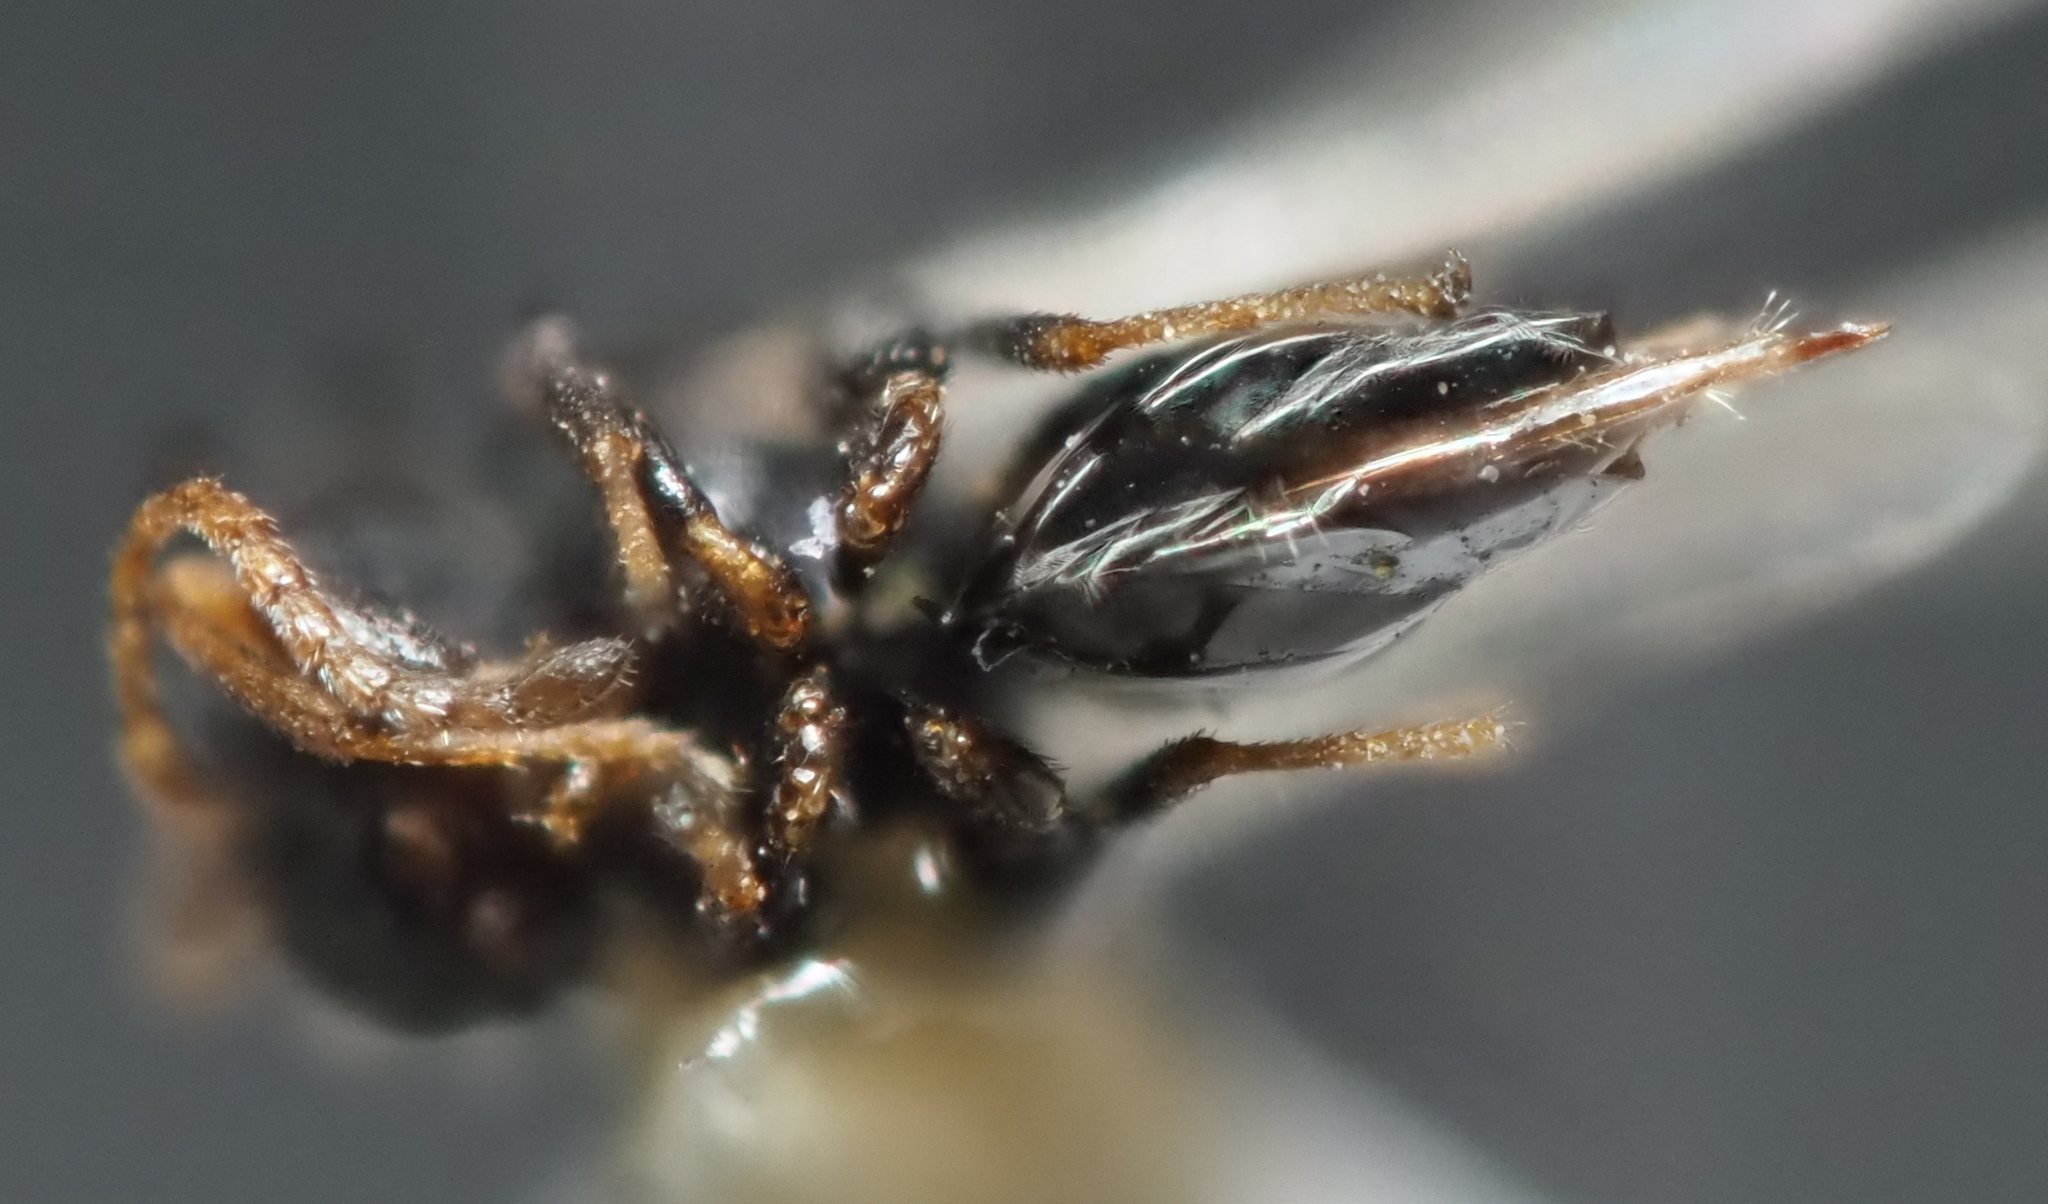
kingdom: Animalia
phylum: Arthropoda
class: Insecta
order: Hymenoptera
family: Cynipidae
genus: Bassettia
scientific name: Bassettia flavipes
